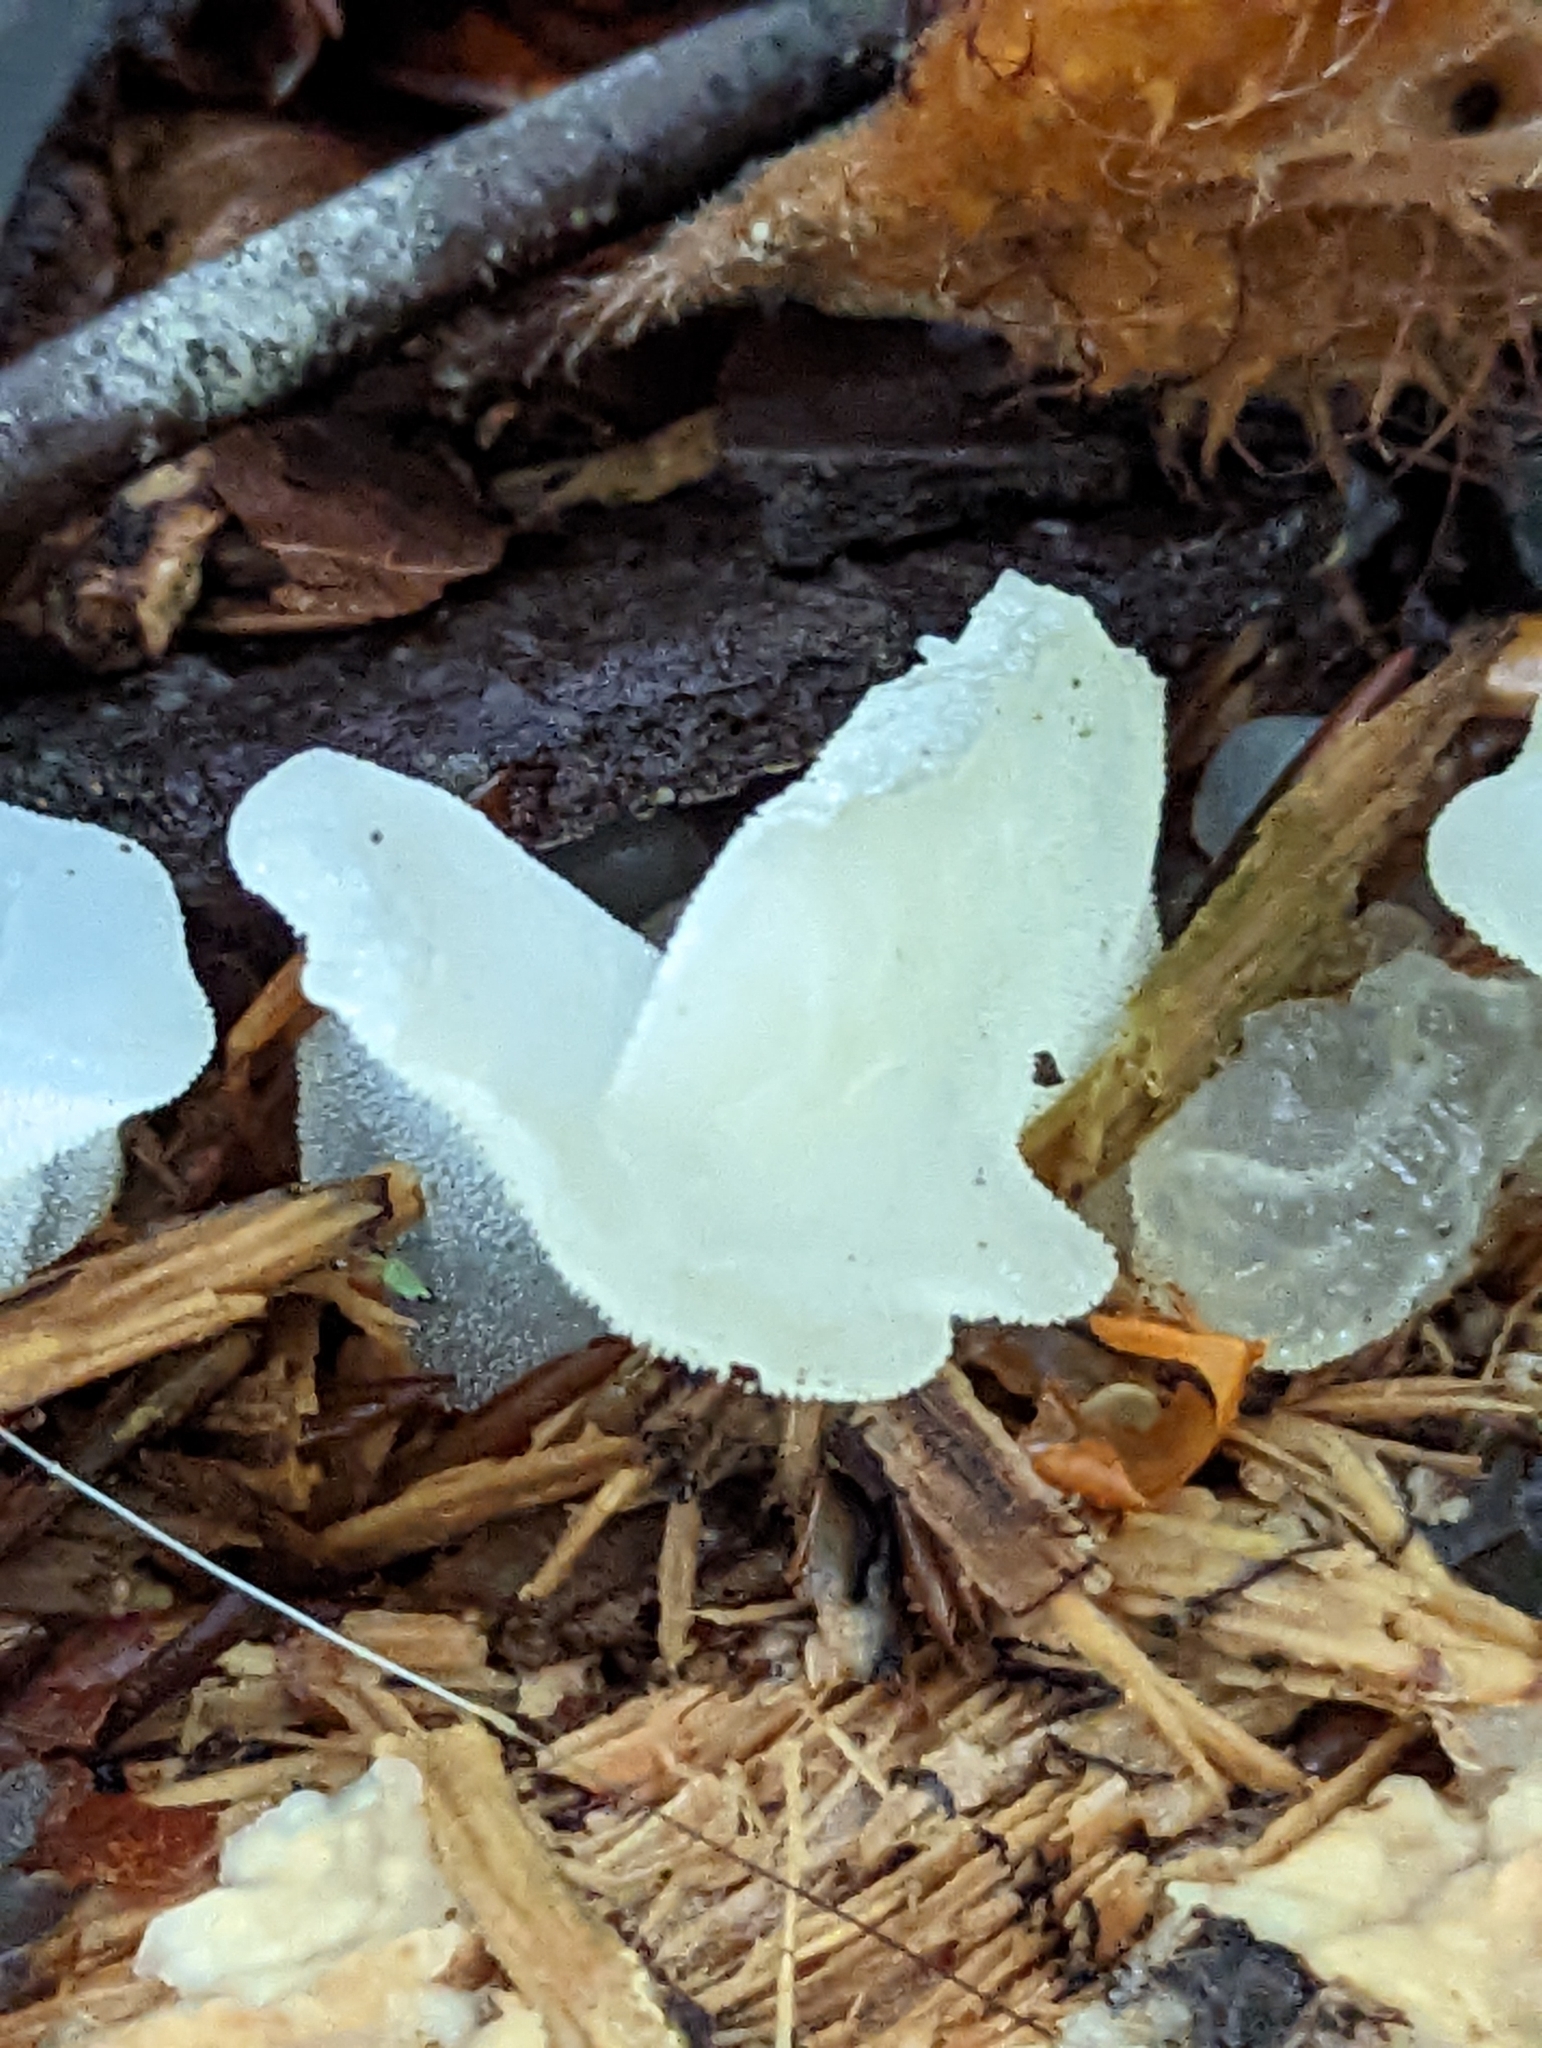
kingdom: Fungi
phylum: Basidiomycota
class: Agaricomycetes
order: Auriculariales
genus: Pseudohydnum
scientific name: Pseudohydnum gelatinosum
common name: Jelly tongue
